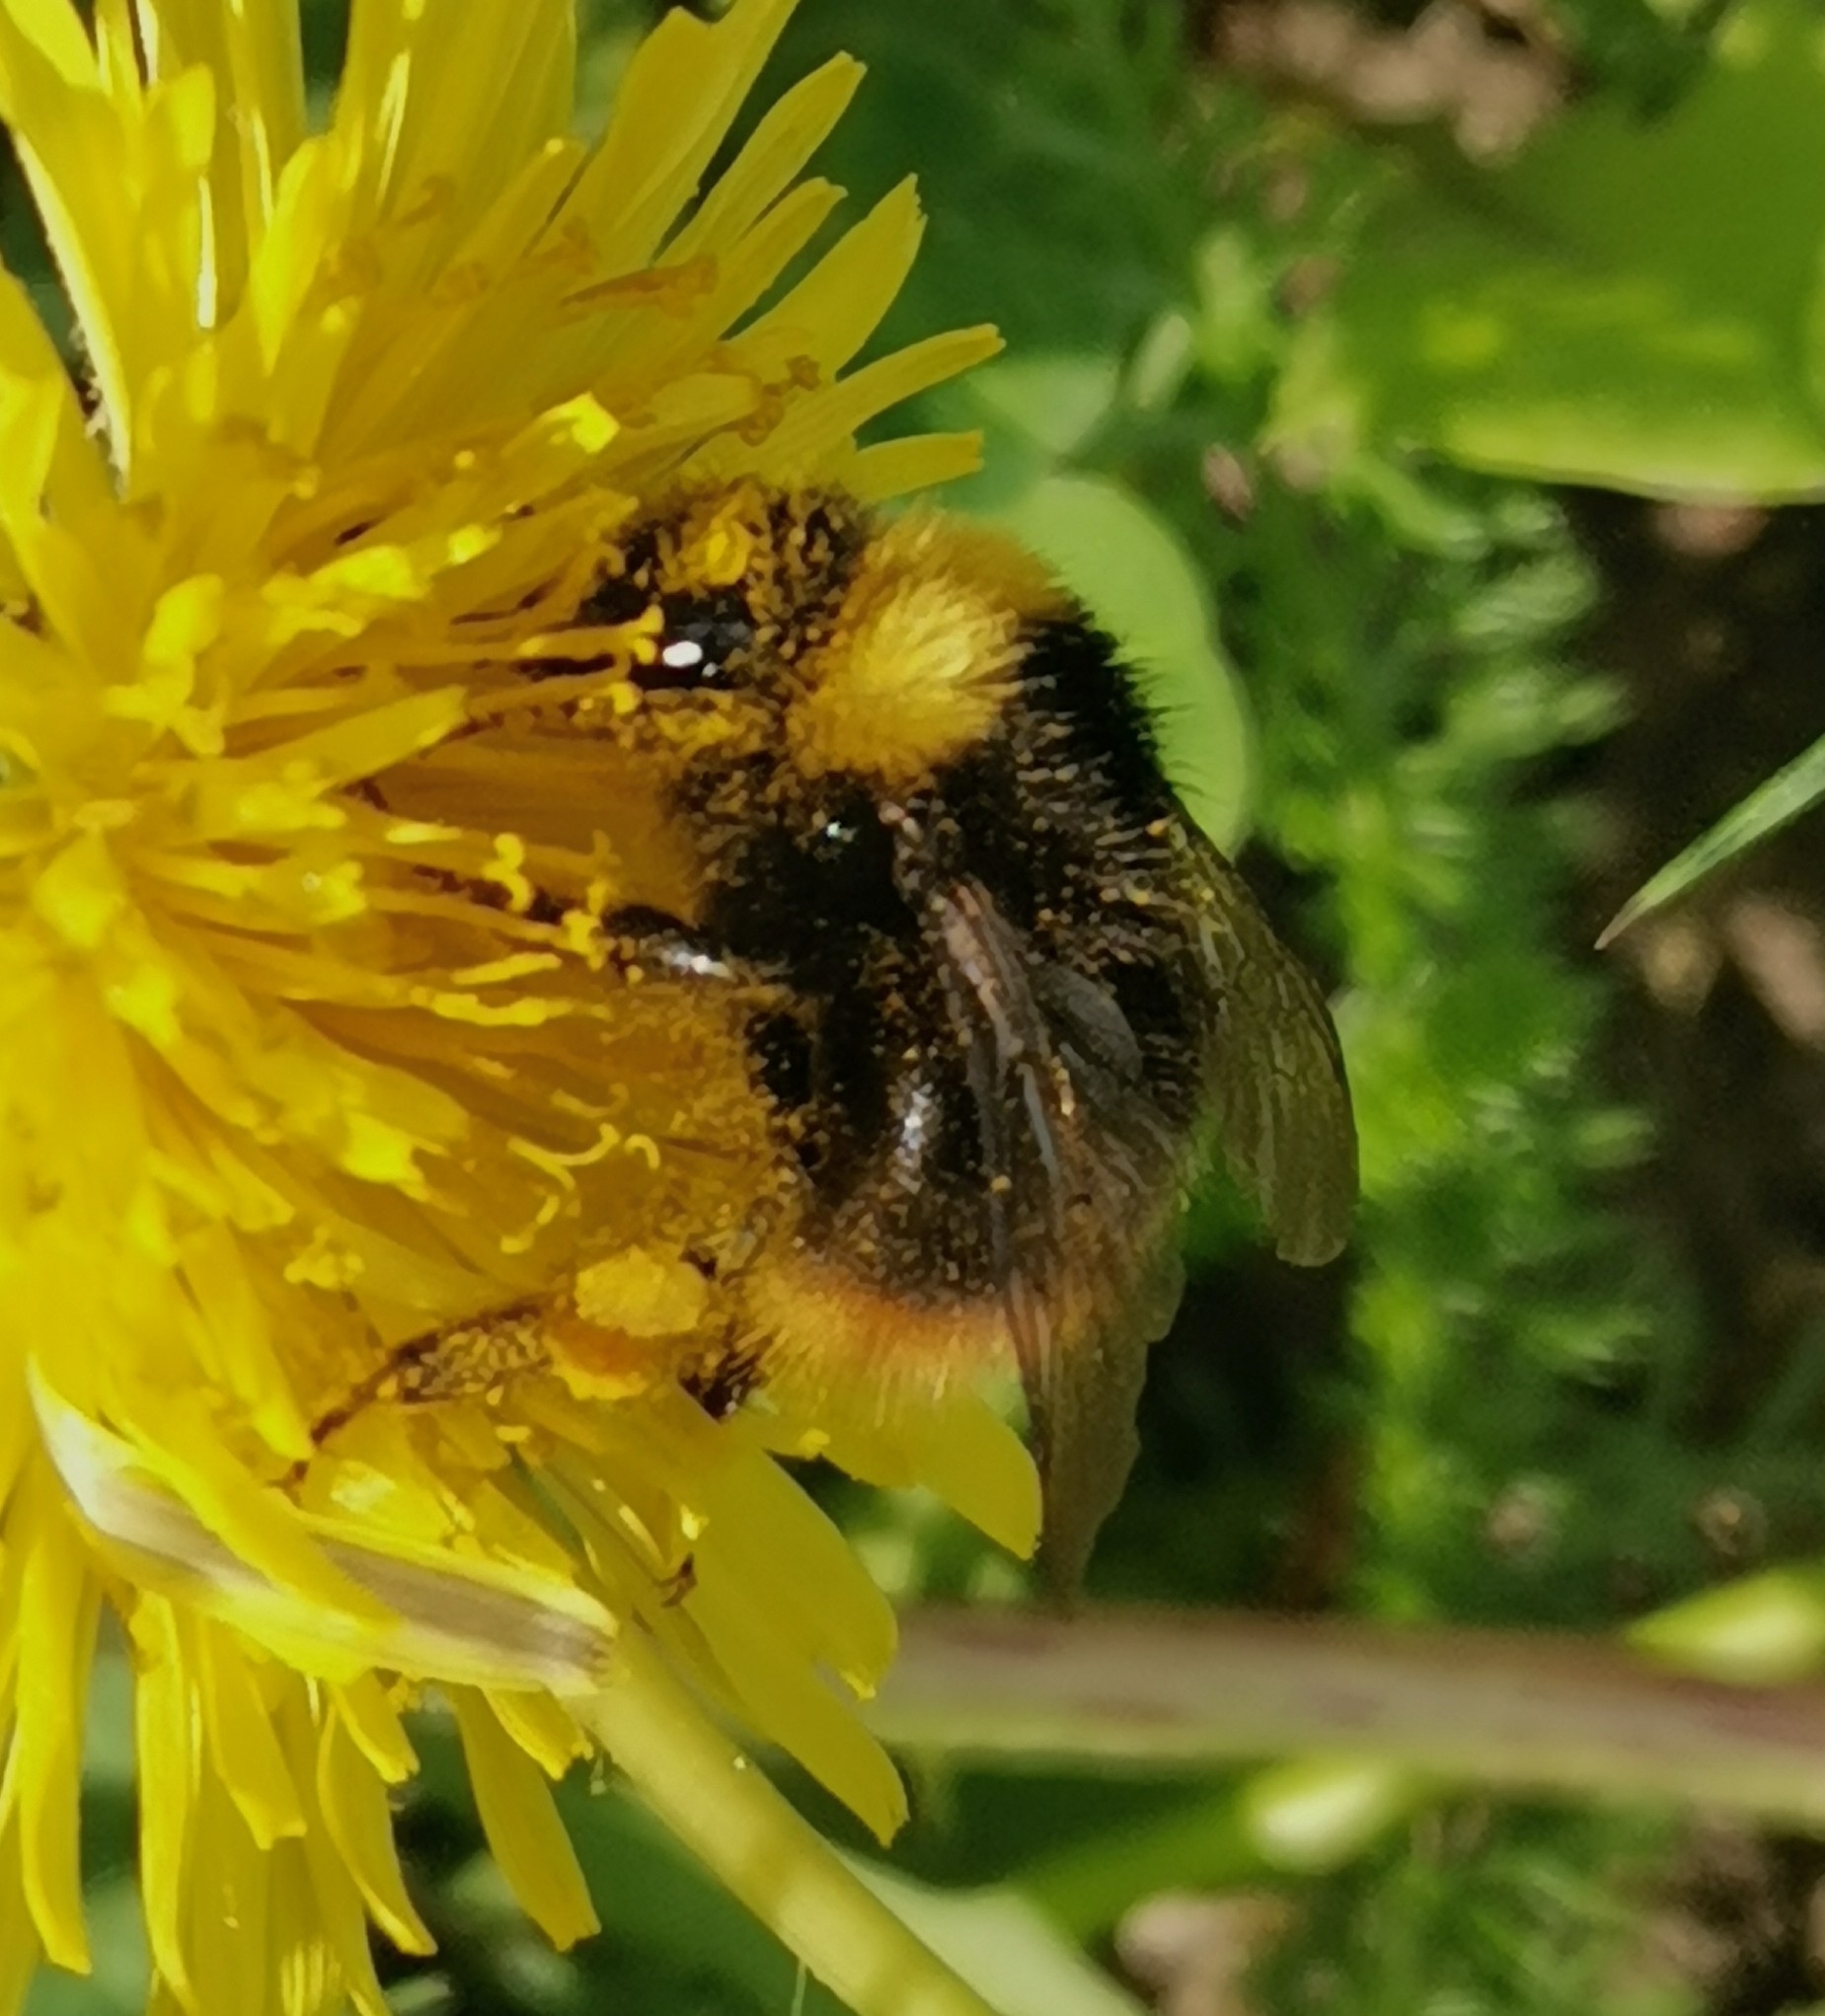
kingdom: Animalia
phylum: Arthropoda
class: Insecta
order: Hymenoptera
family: Apidae
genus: Bombus
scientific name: Bombus pratorum
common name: Early humble-bee
